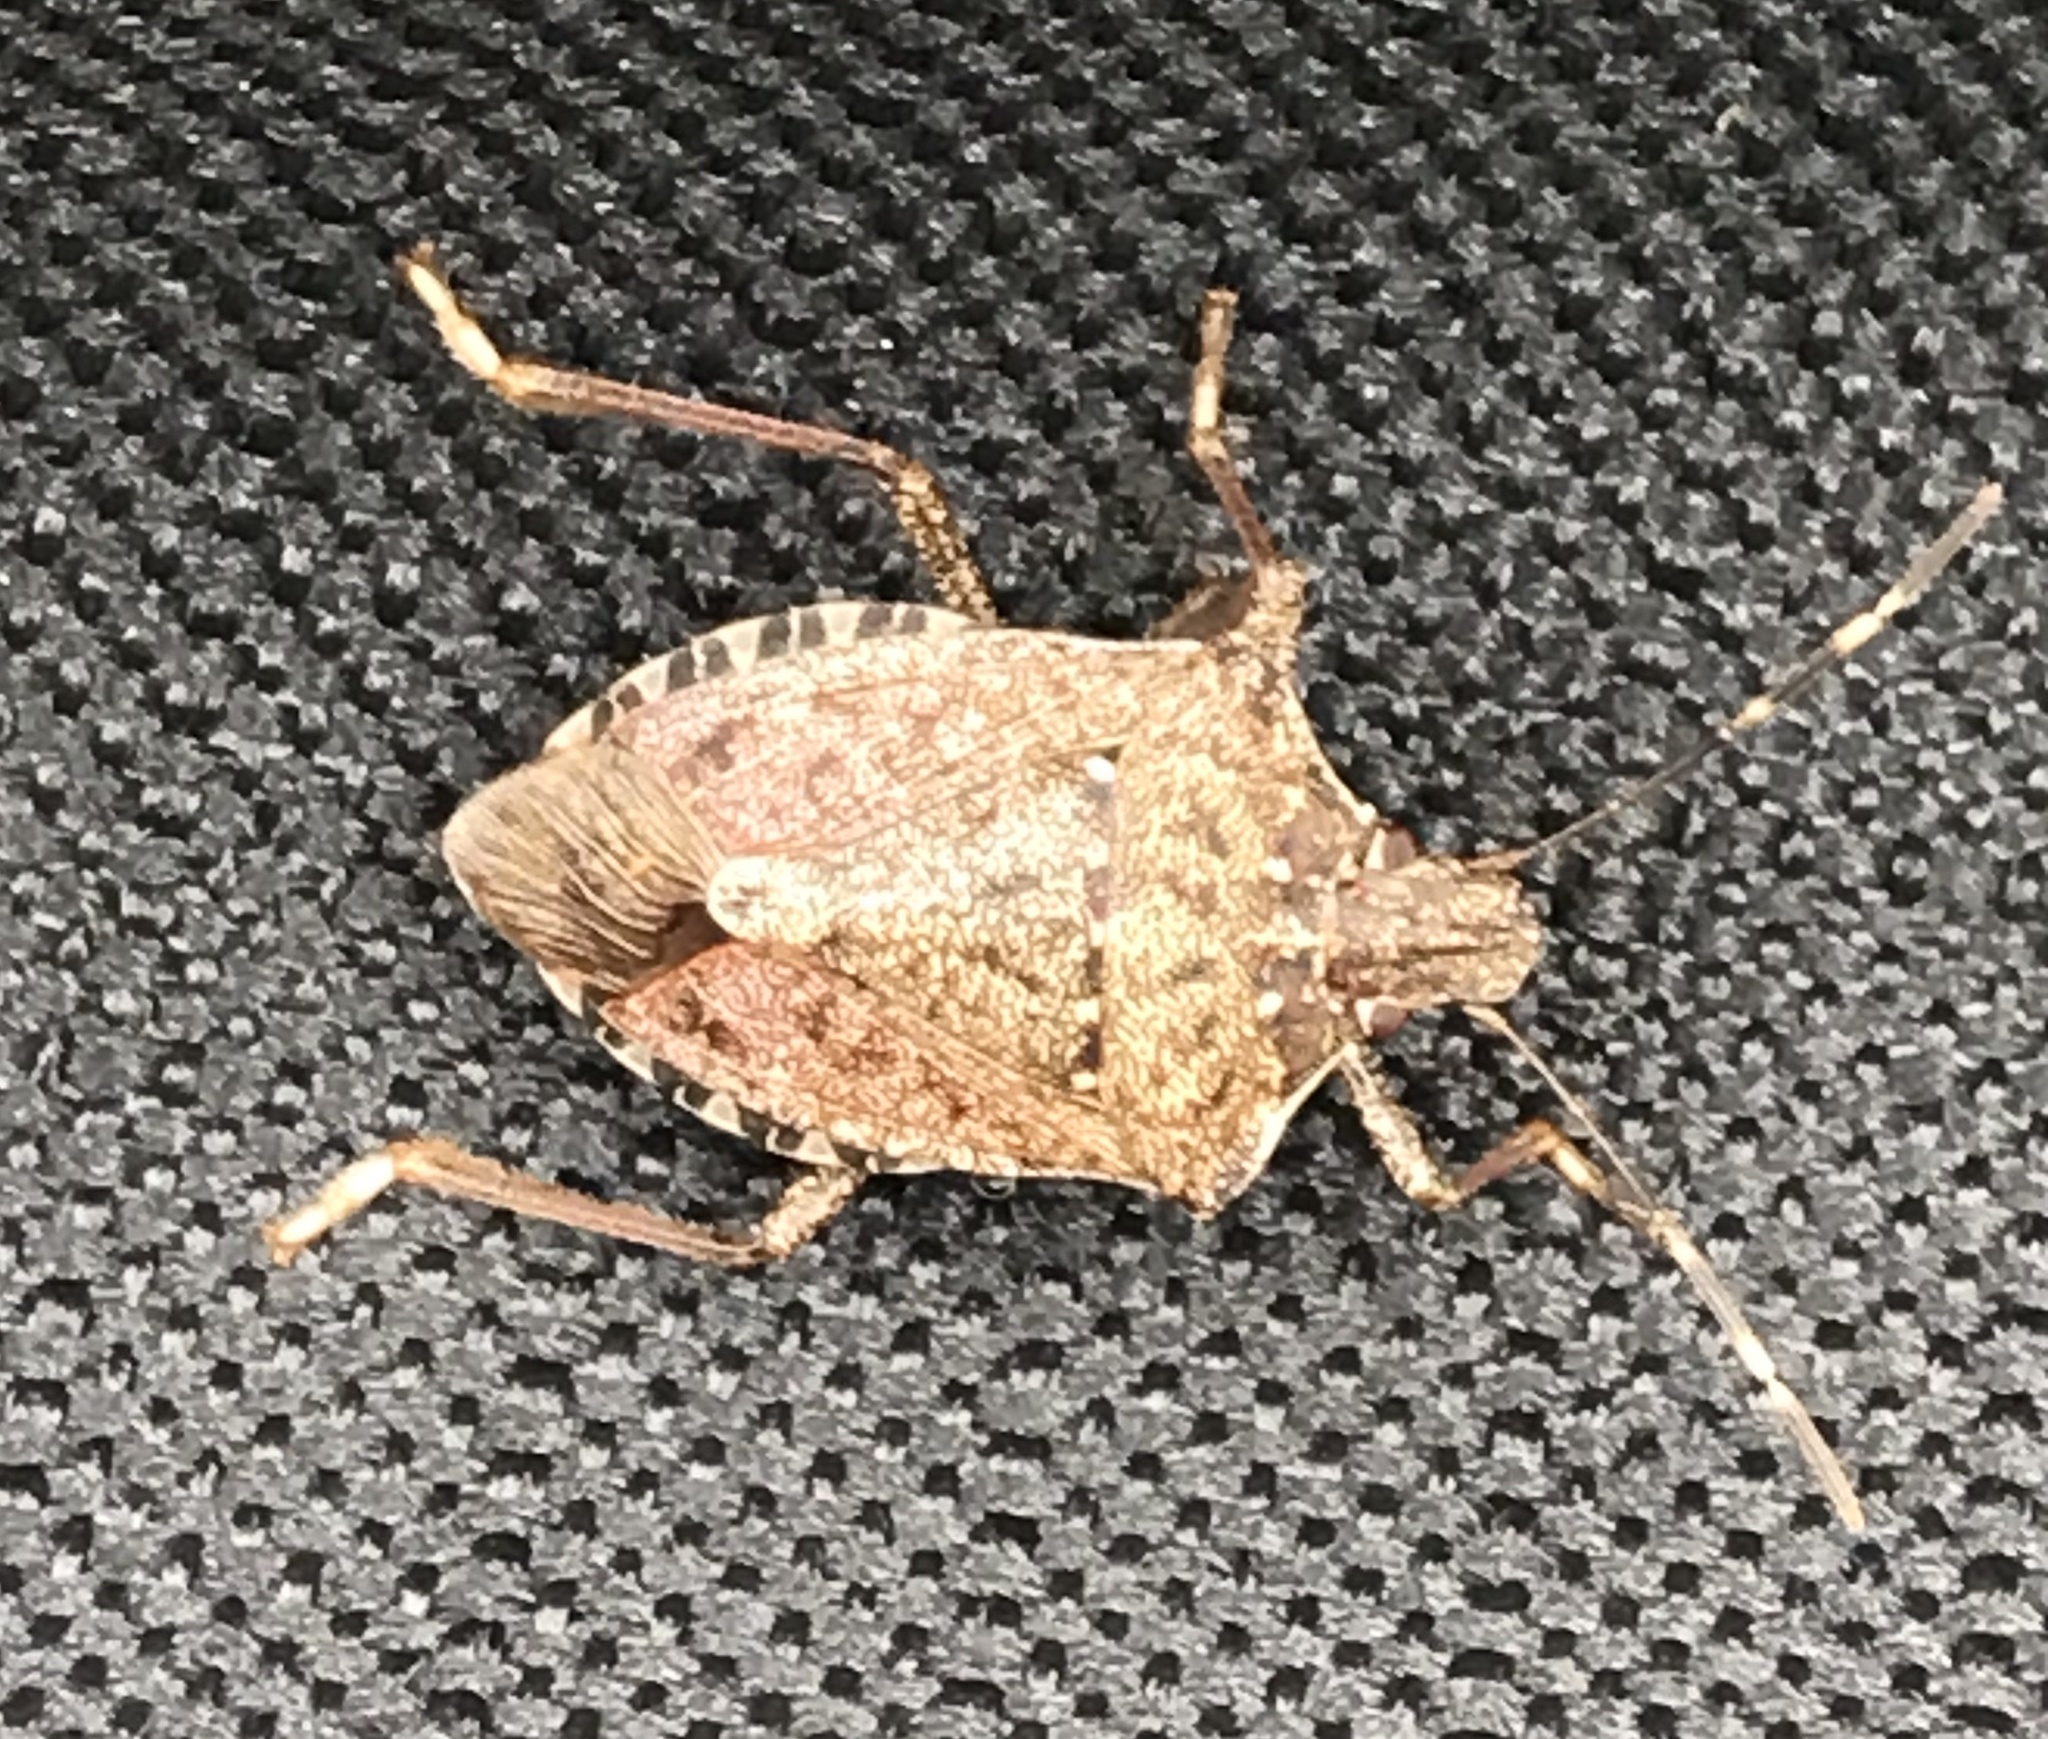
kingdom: Animalia
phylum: Arthropoda
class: Insecta
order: Hemiptera
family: Pentatomidae
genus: Halyomorpha
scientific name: Halyomorpha halys
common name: Brown marmorated stink bug
